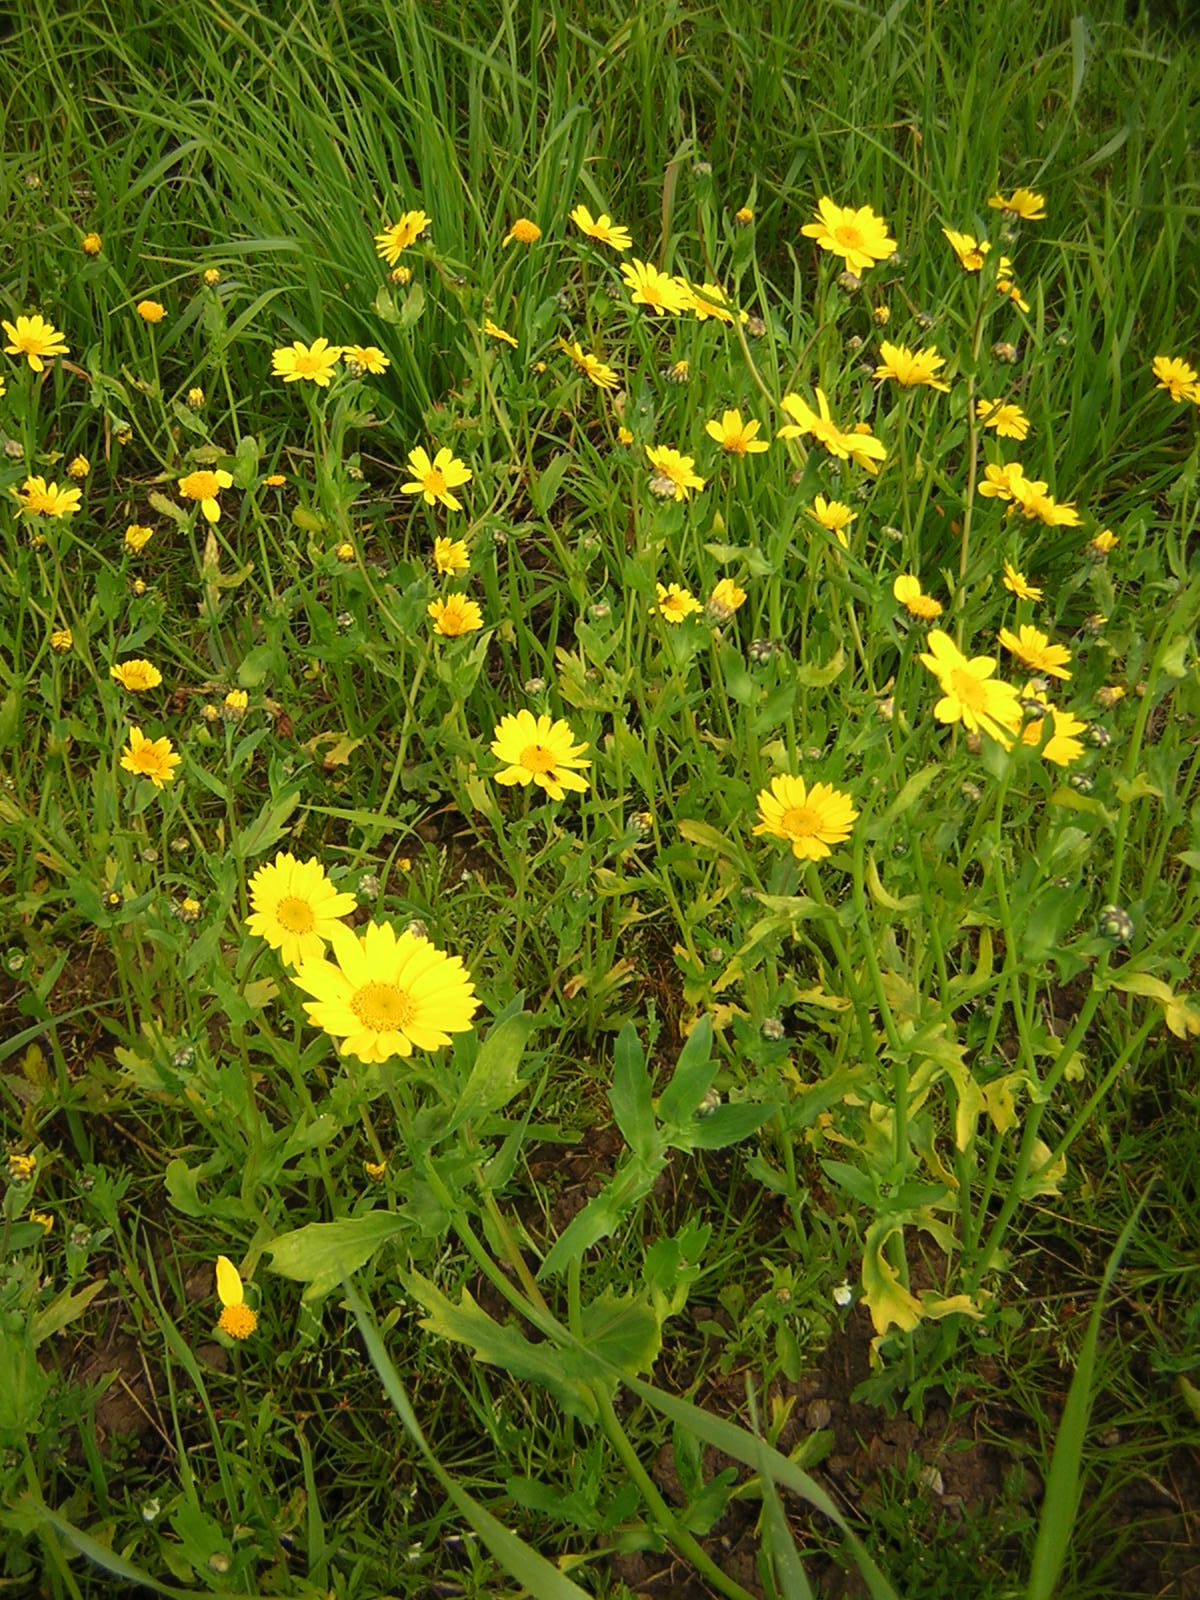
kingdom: Plantae
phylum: Tracheophyta
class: Magnoliopsida
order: Asterales
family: Asteraceae
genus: Glebionis
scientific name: Glebionis segetum
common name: Corndaisy
